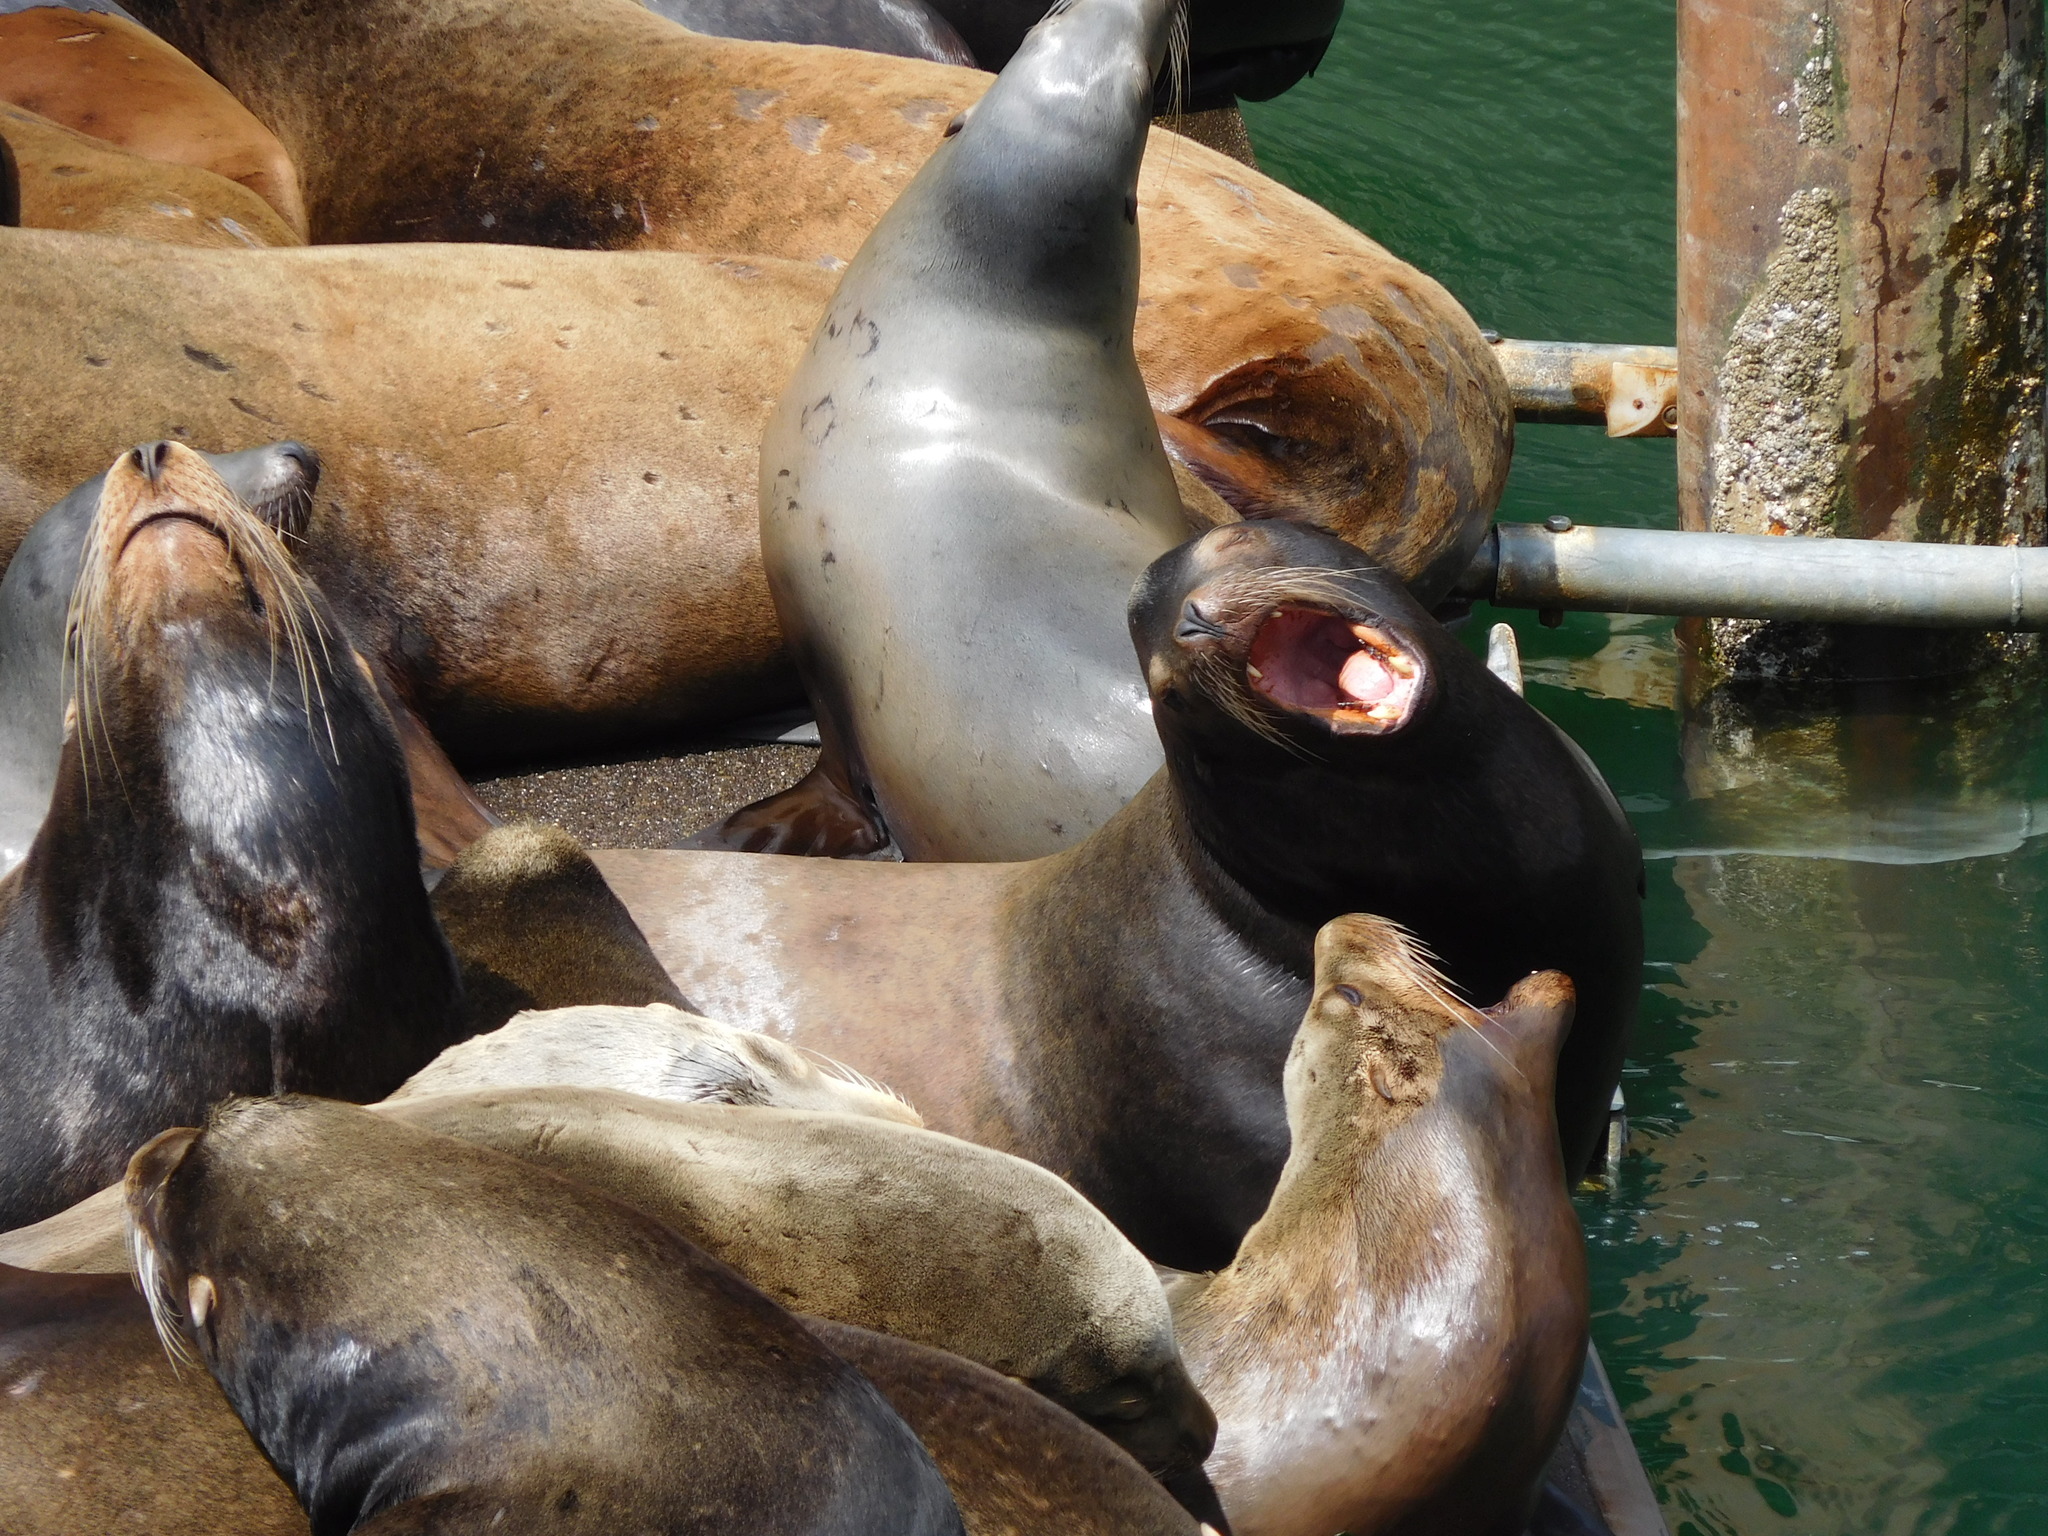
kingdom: Animalia
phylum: Chordata
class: Mammalia
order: Carnivora
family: Otariidae
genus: Zalophus
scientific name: Zalophus californianus
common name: California sea lion
